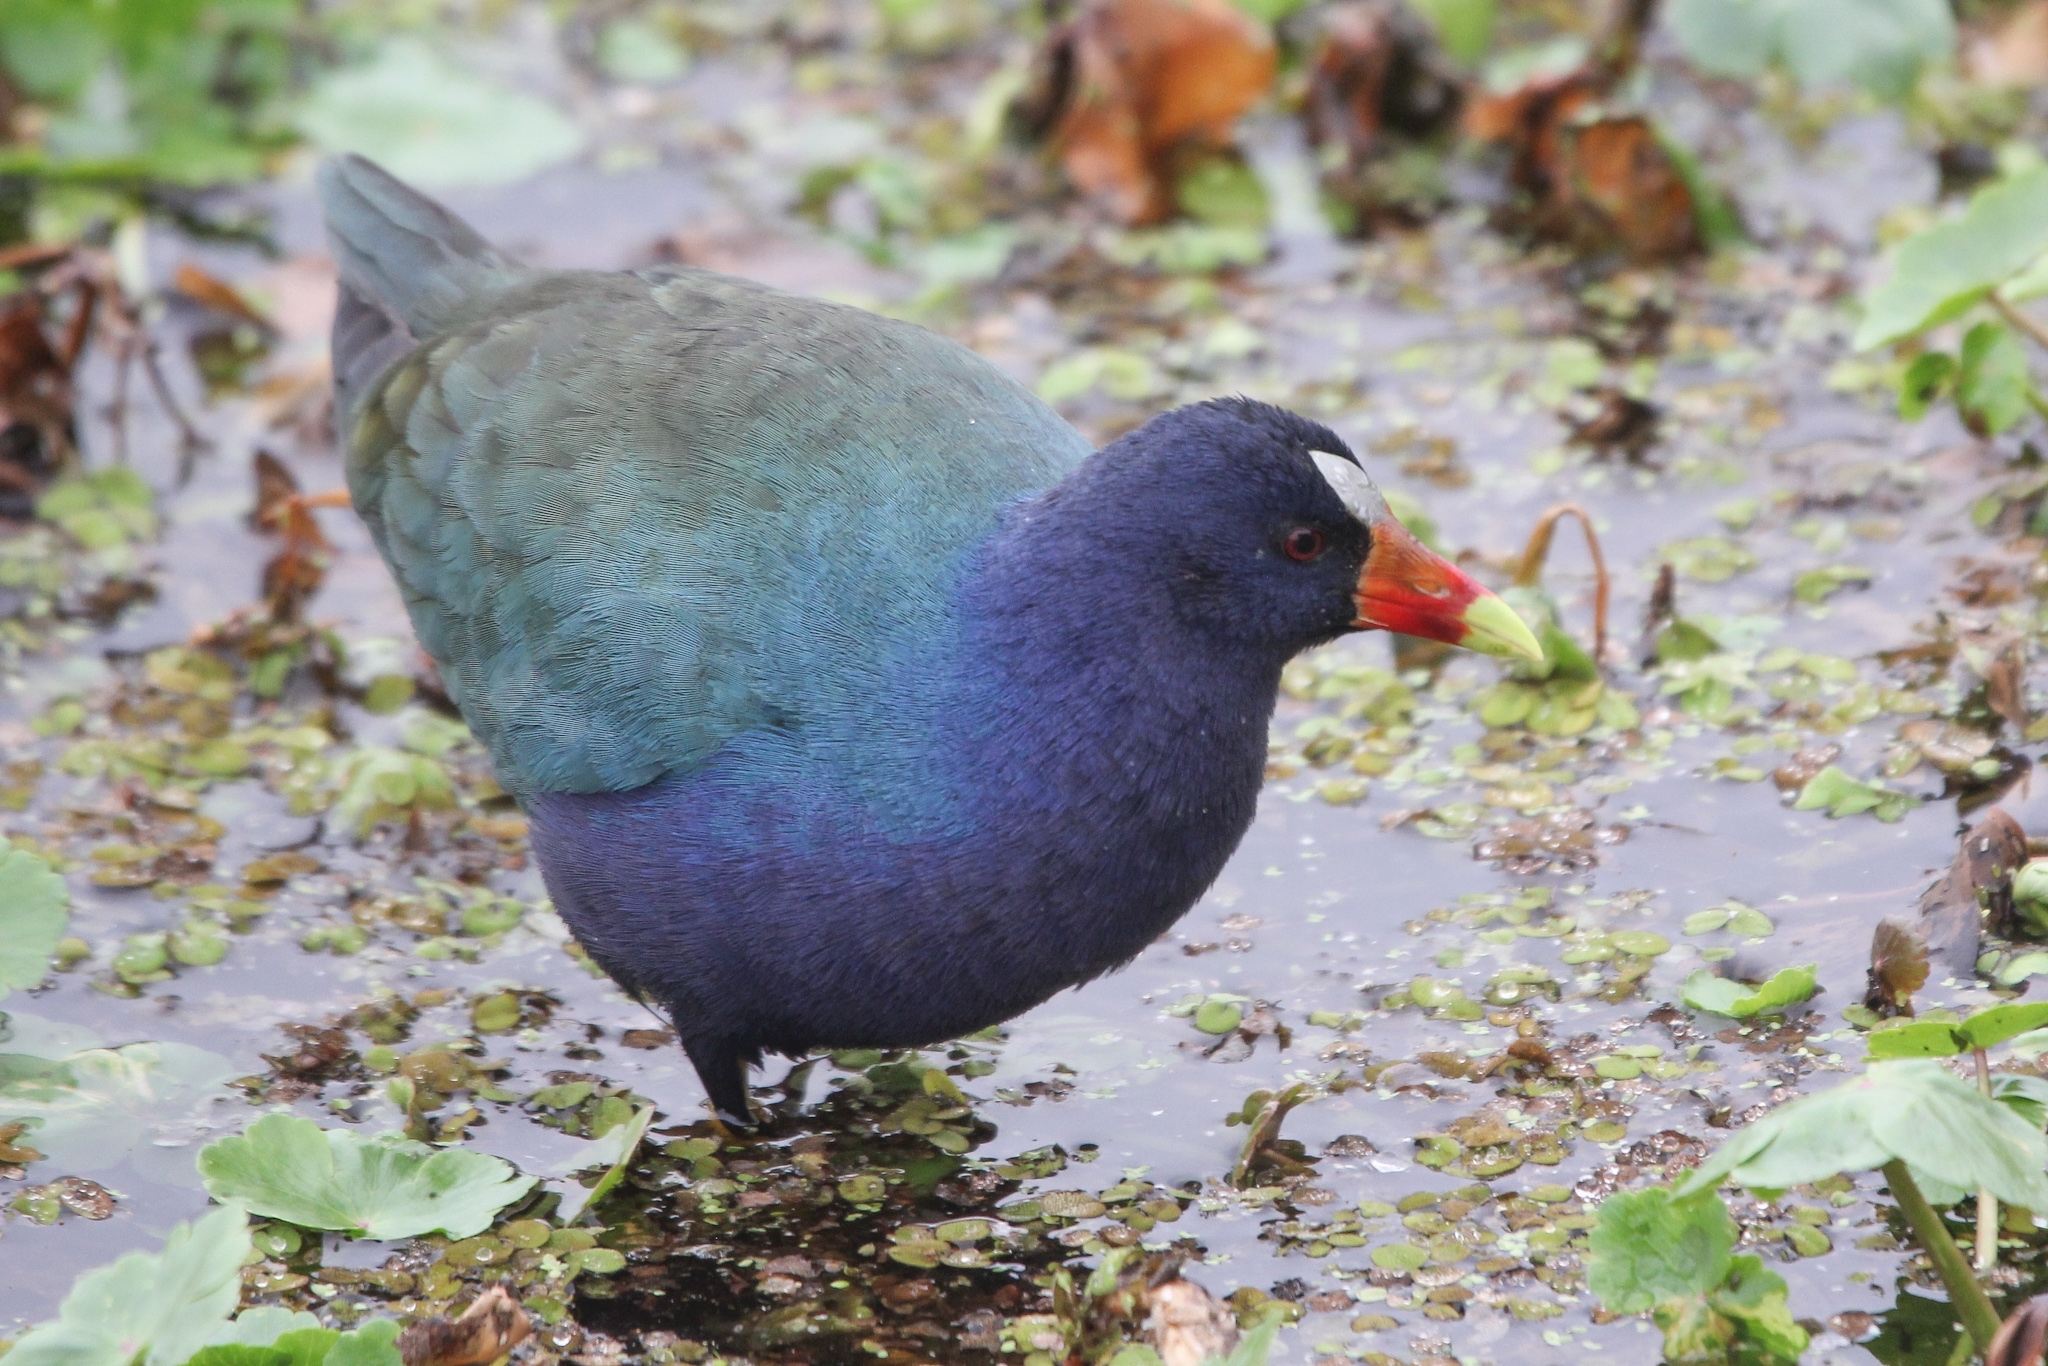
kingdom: Animalia
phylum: Chordata
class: Aves
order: Gruiformes
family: Rallidae
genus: Porphyrio
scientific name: Porphyrio martinica
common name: Purple gallinule
